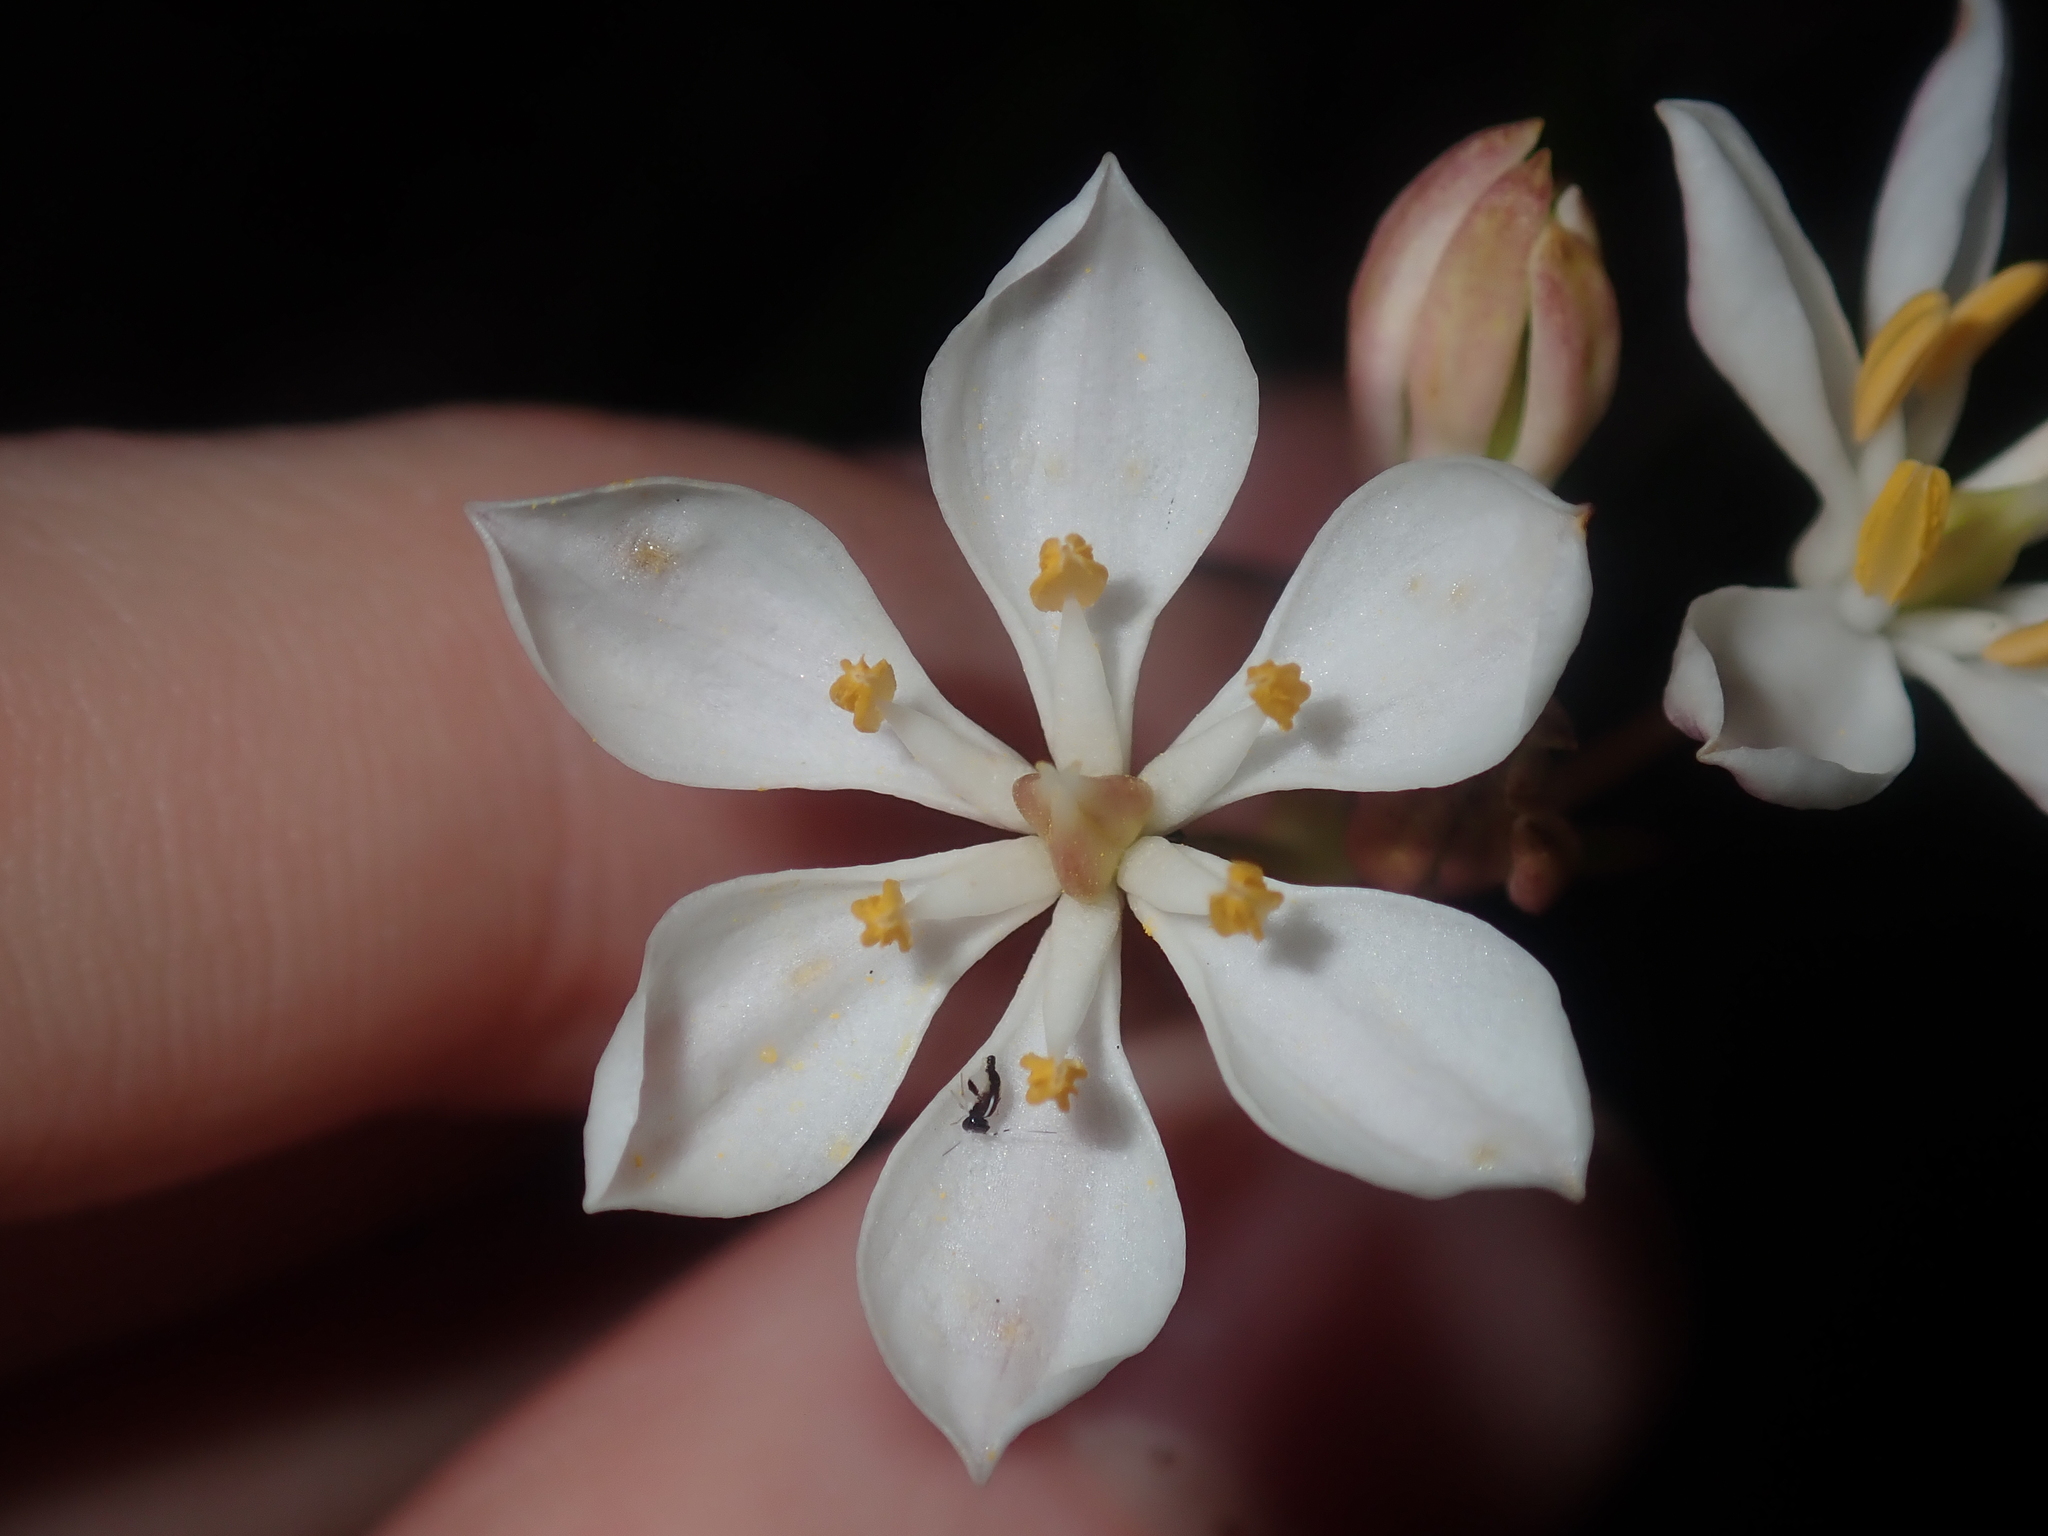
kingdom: Plantae
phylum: Tracheophyta
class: Liliopsida
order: Liliales
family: Colchicaceae
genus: Burchardia
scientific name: Burchardia congesta
